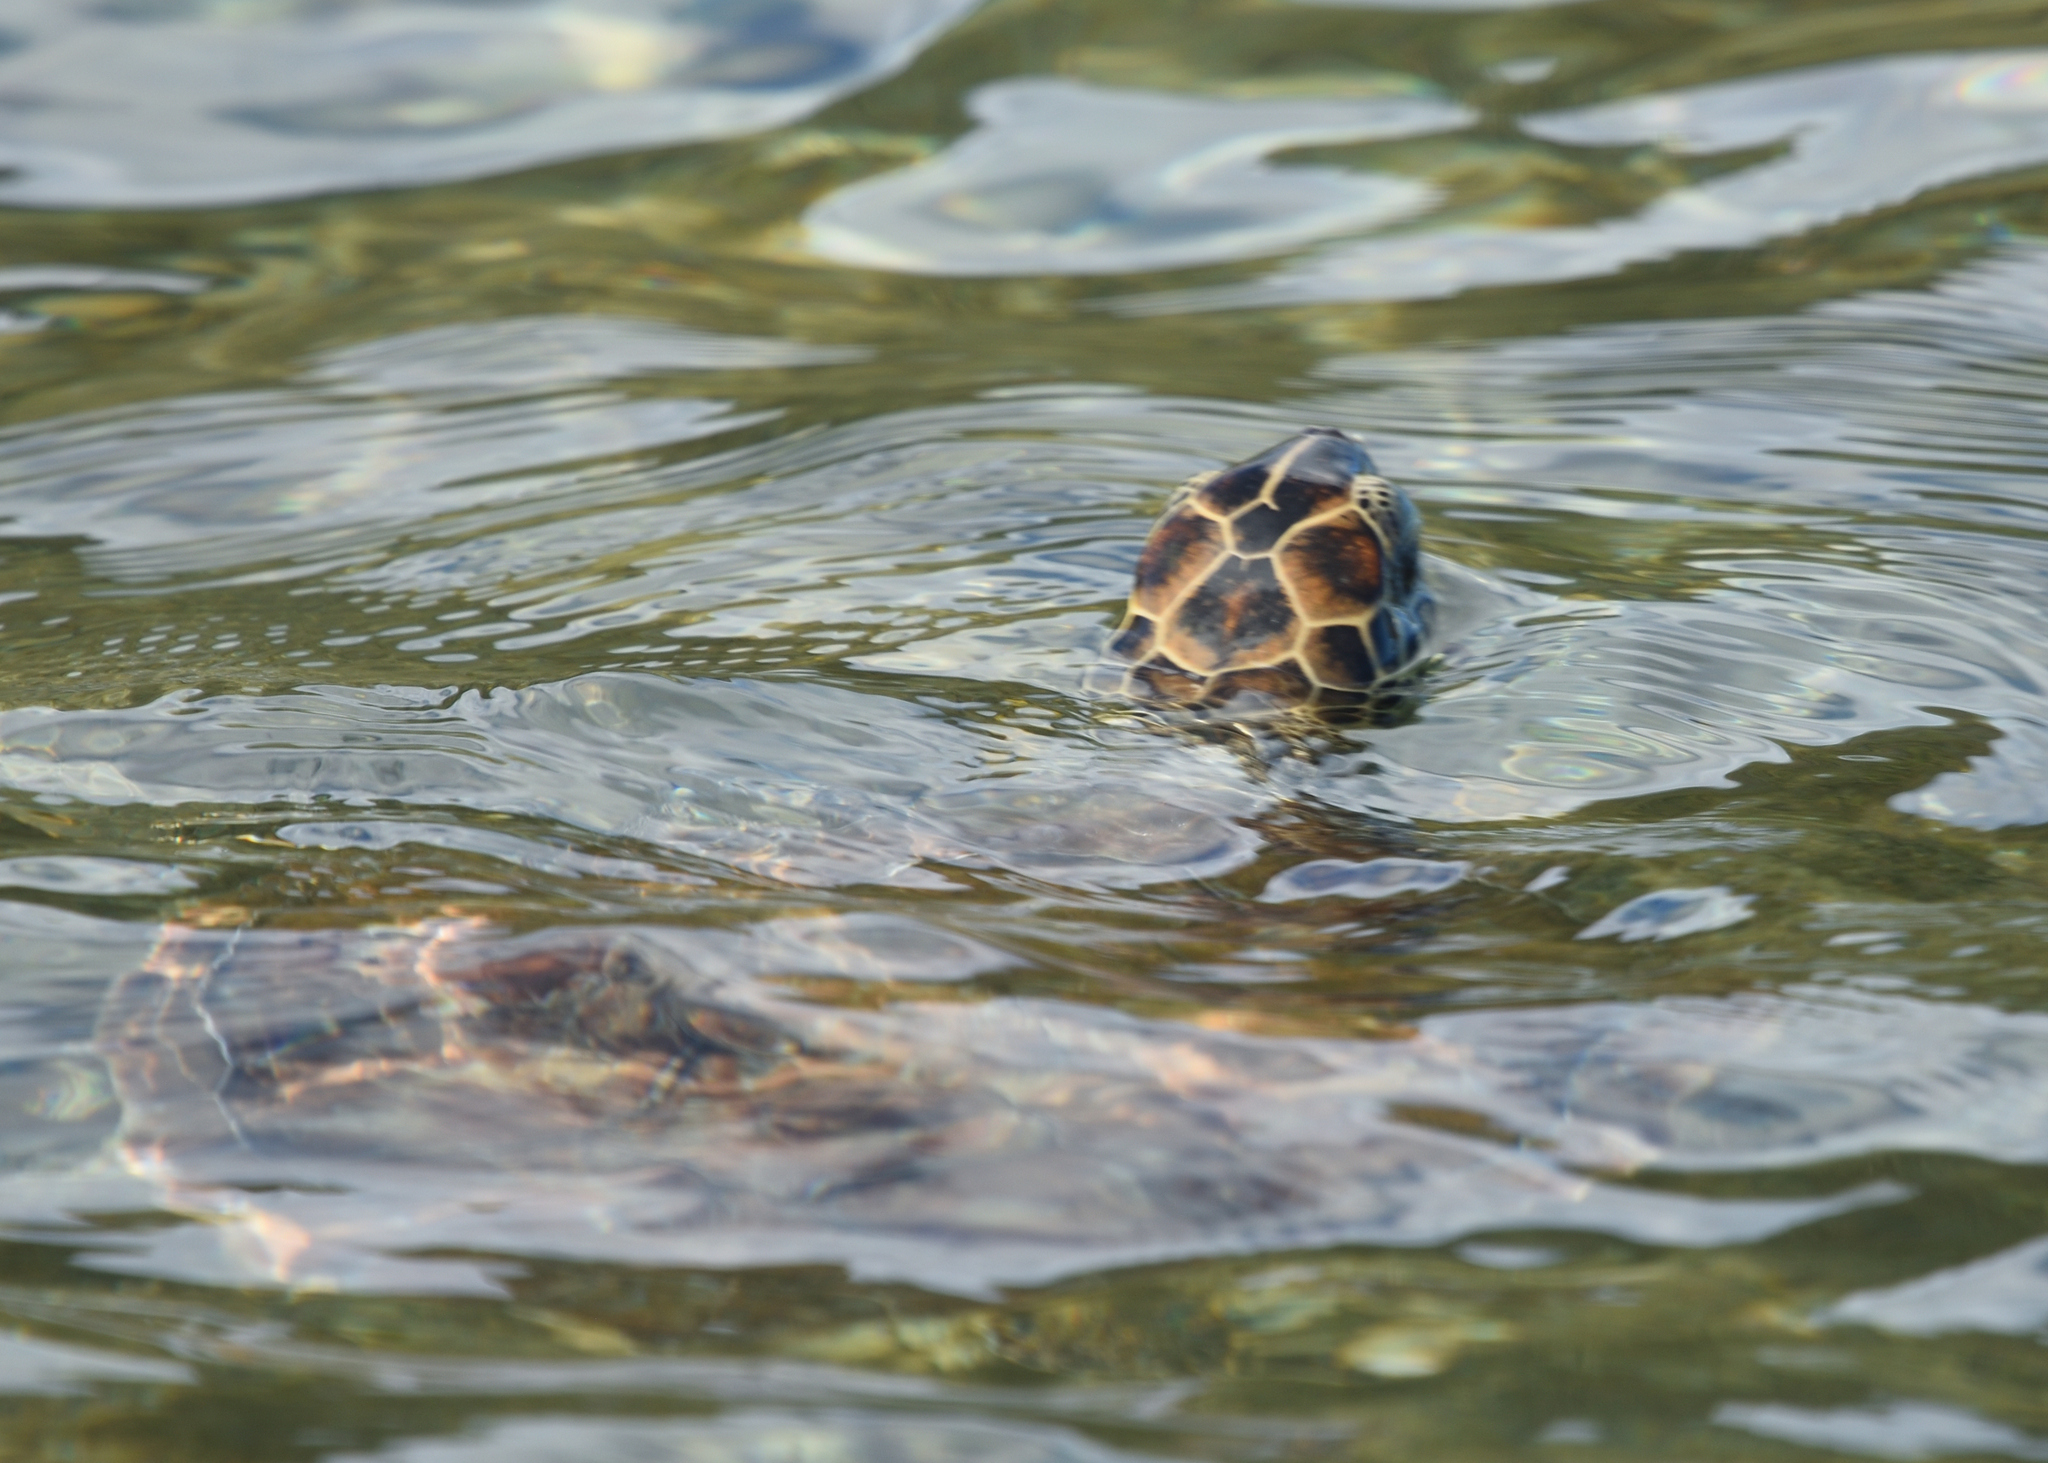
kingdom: Animalia
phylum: Chordata
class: Testudines
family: Cheloniidae
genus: Chelonia
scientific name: Chelonia mydas
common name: Green turtle
